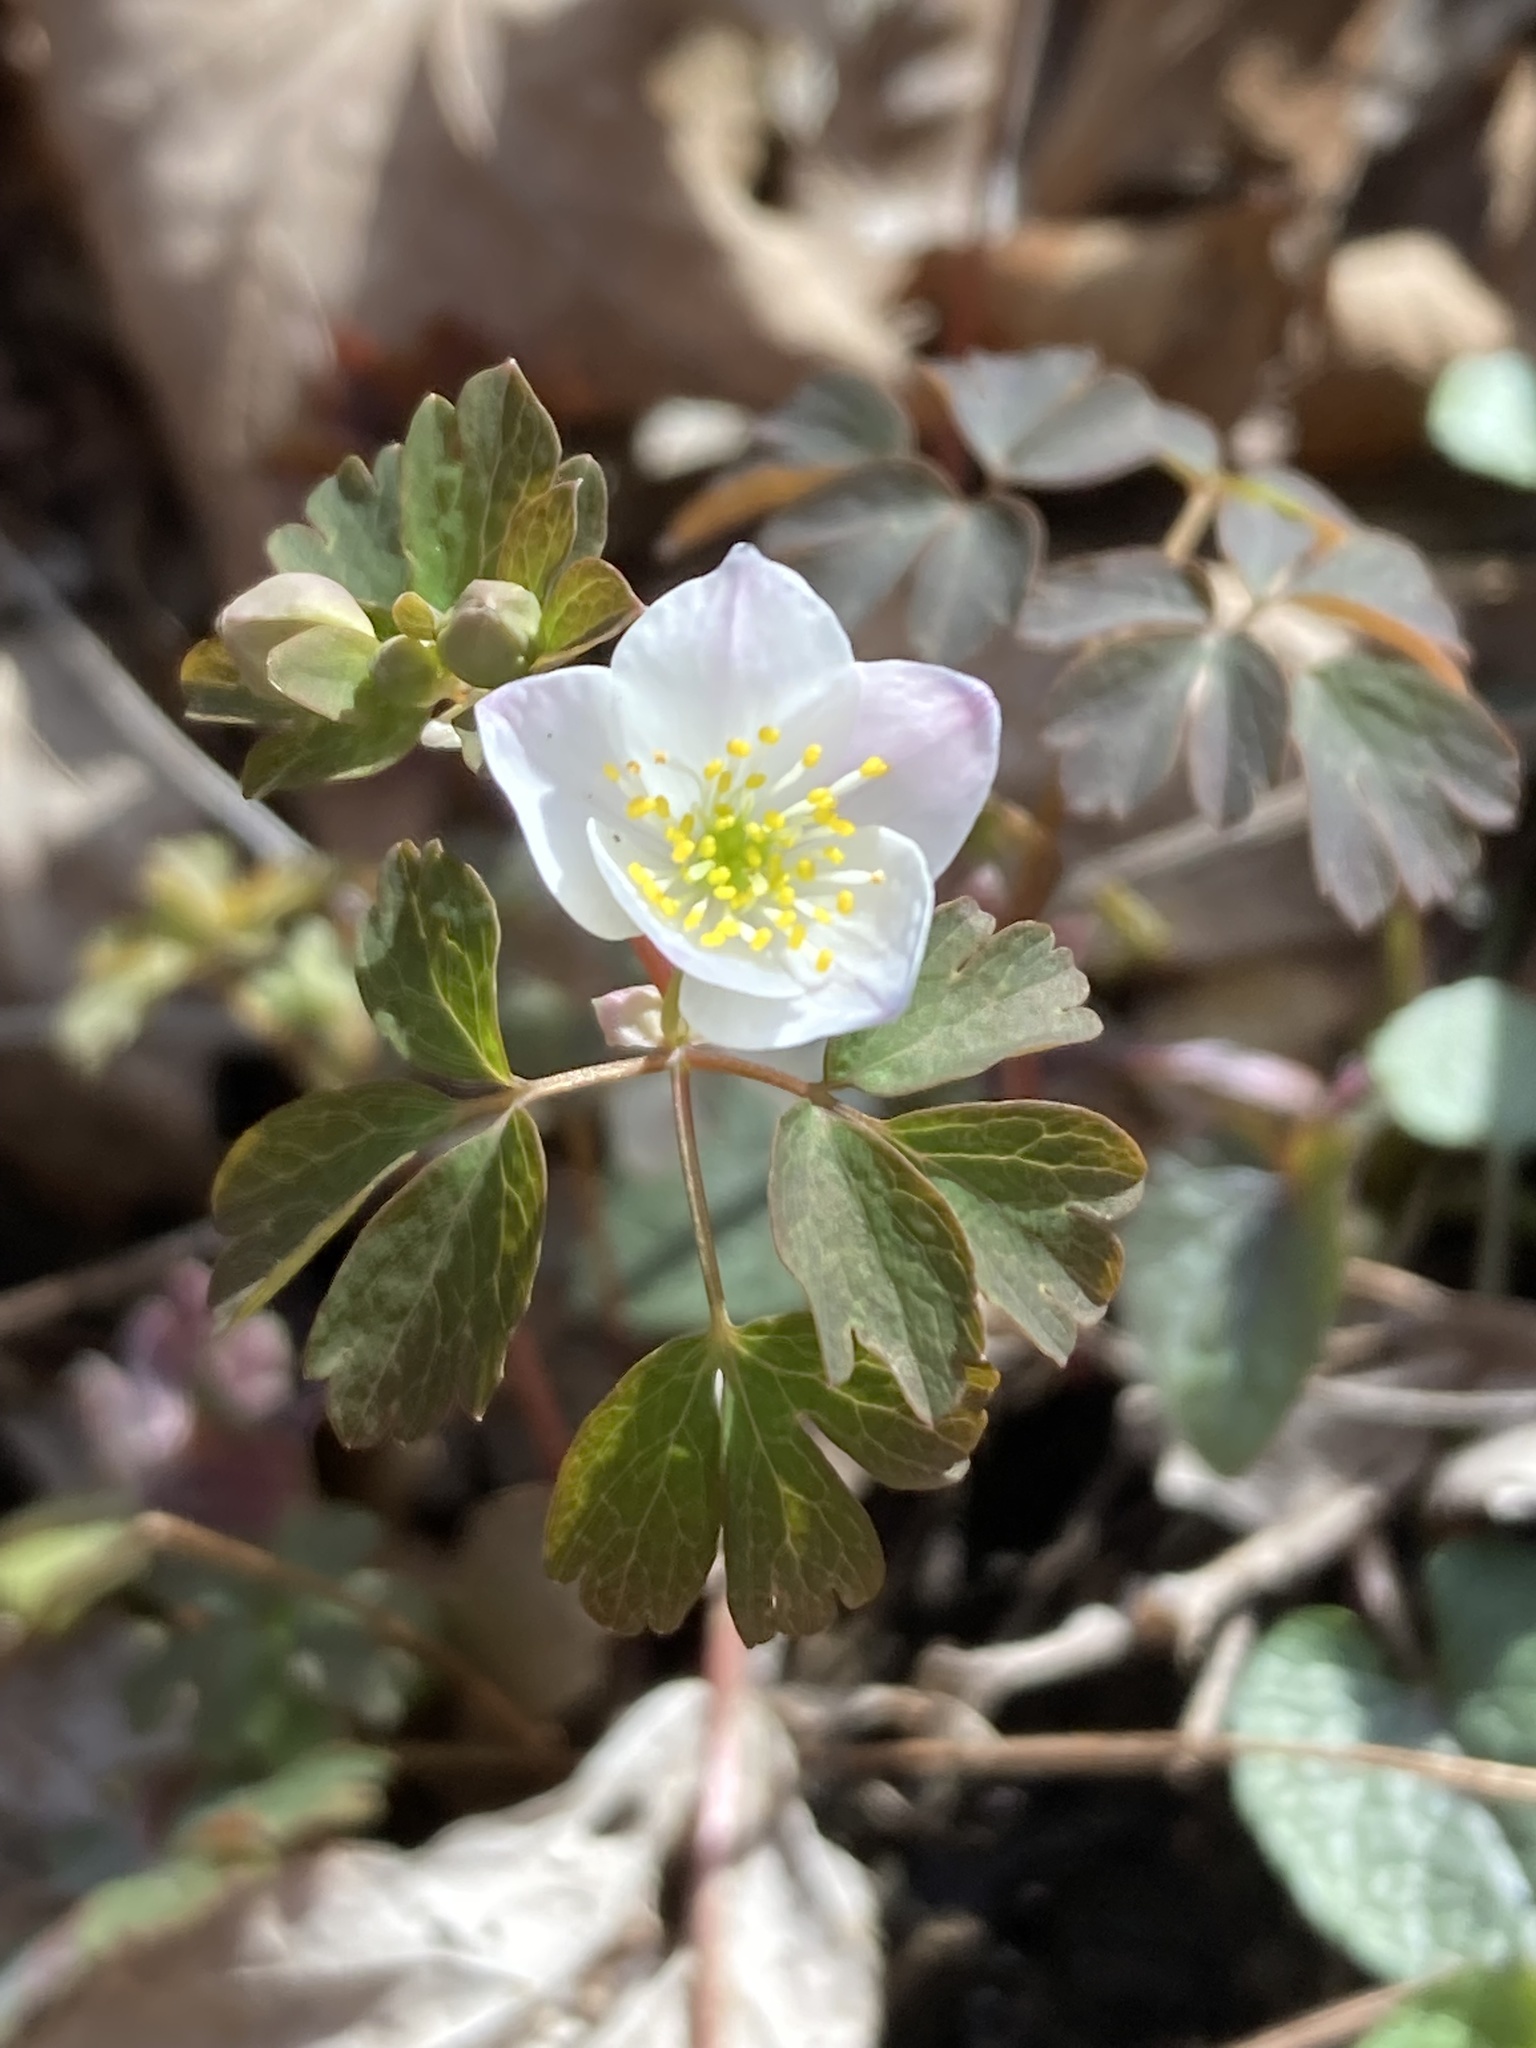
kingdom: Plantae
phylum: Tracheophyta
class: Magnoliopsida
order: Ranunculales
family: Ranunculaceae
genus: Enemion
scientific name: Enemion biternatum
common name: Eastern false rue-anemone
